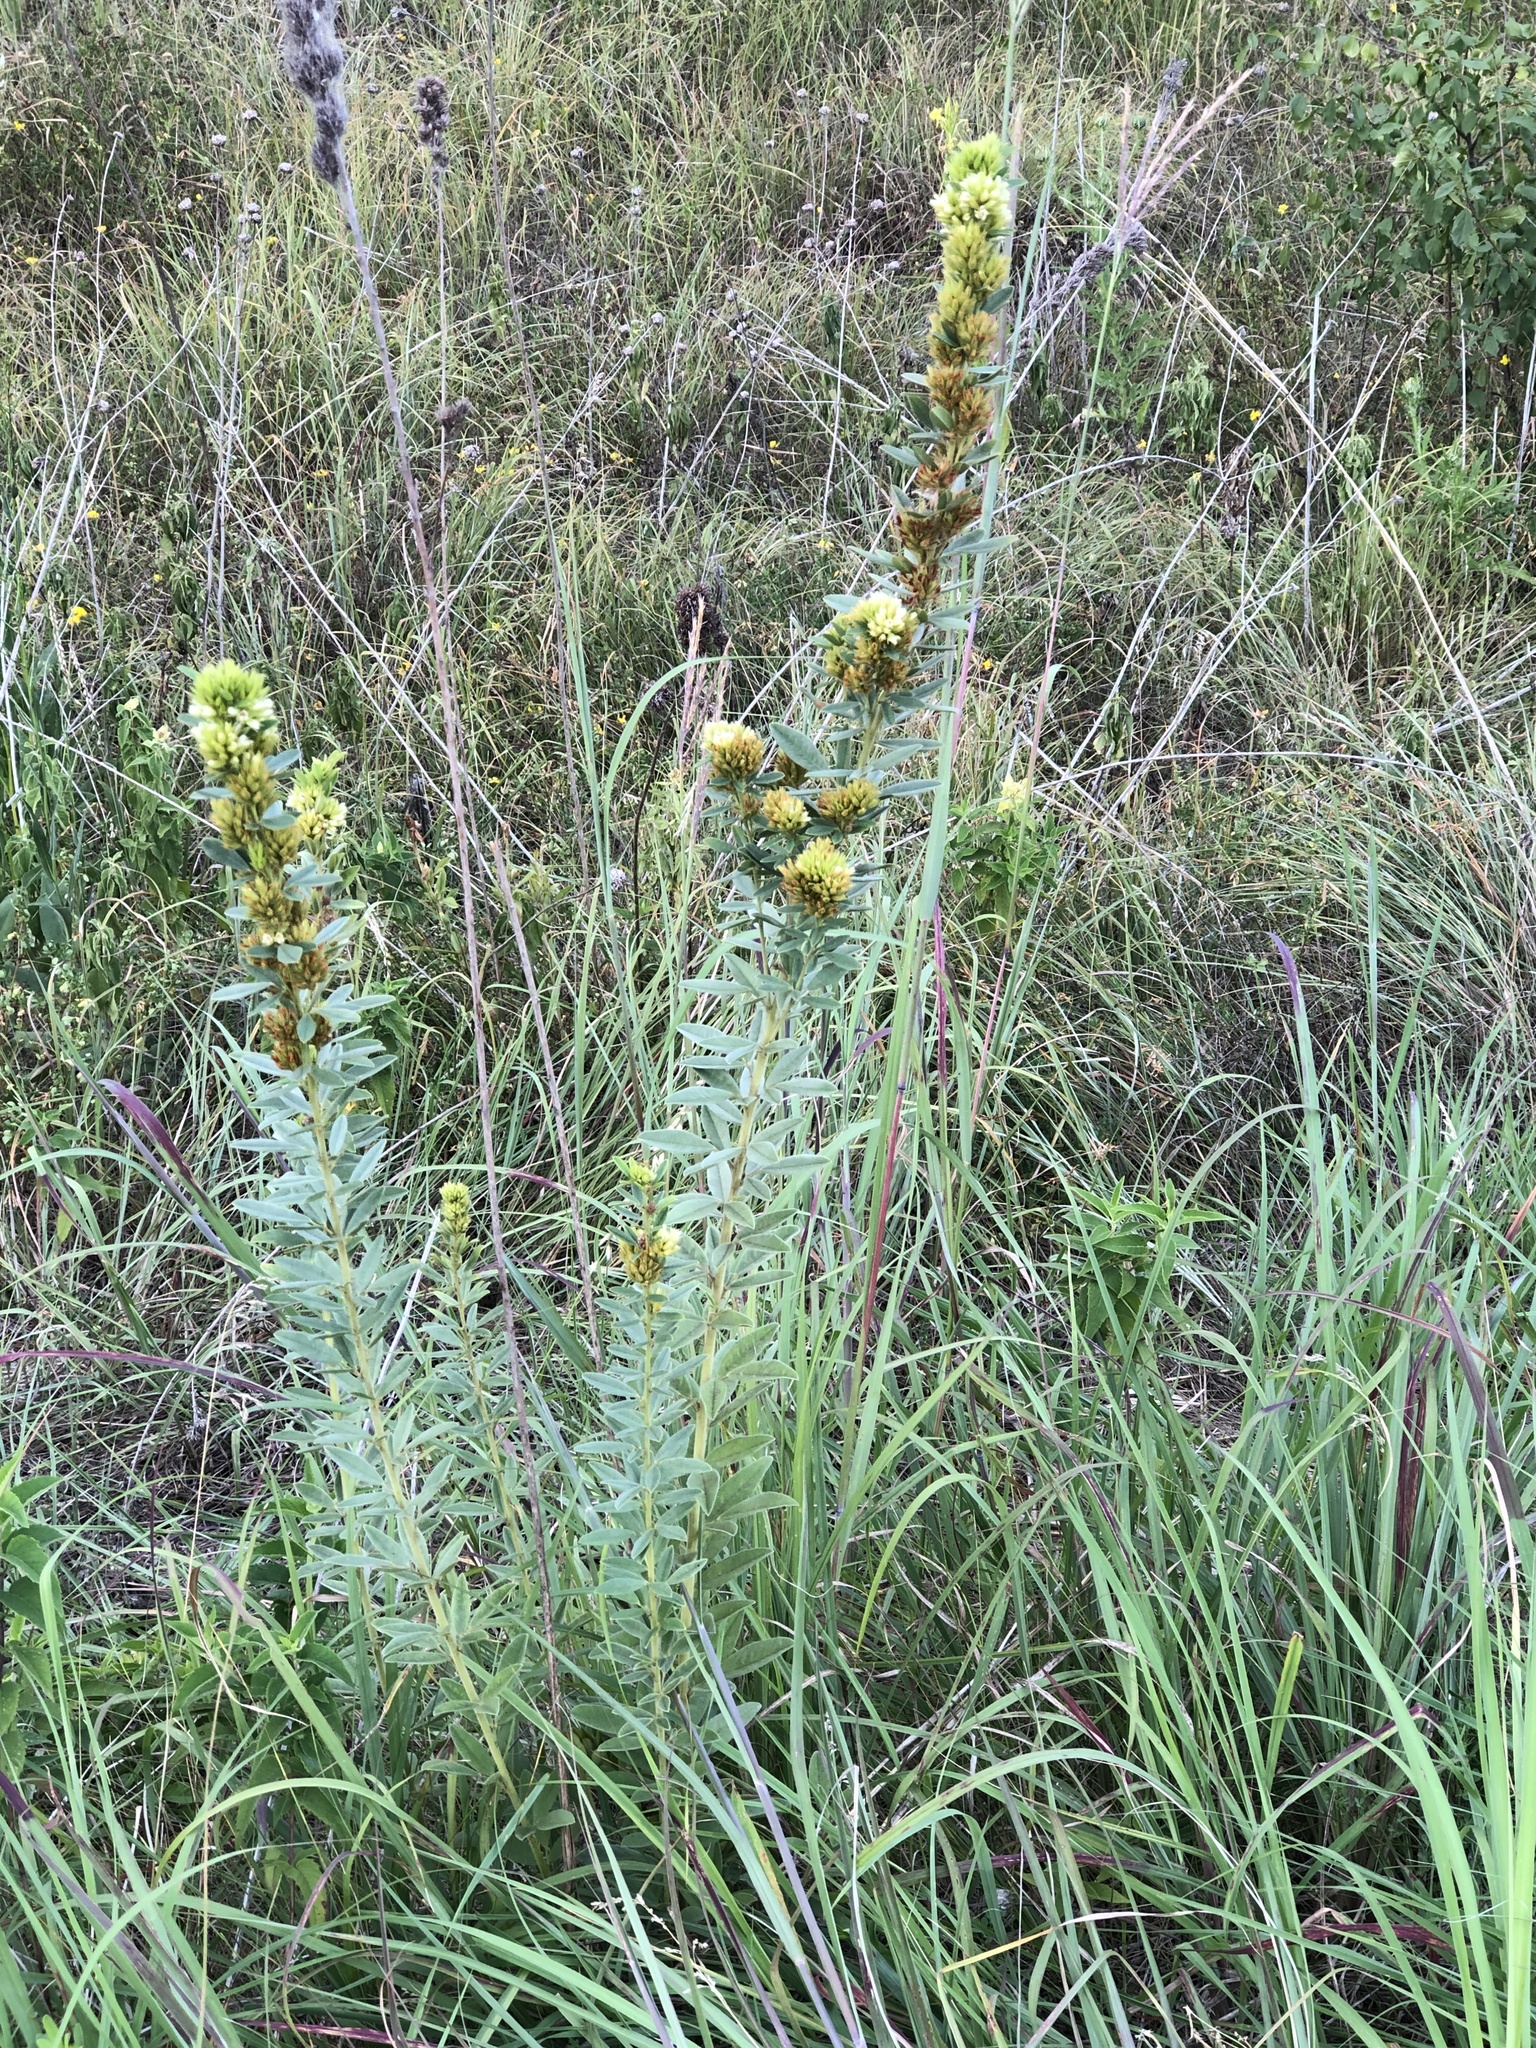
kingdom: Plantae
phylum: Tracheophyta
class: Magnoliopsida
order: Fabales
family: Fabaceae
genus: Lespedeza
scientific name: Lespedeza capitata
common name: Dusty clover
